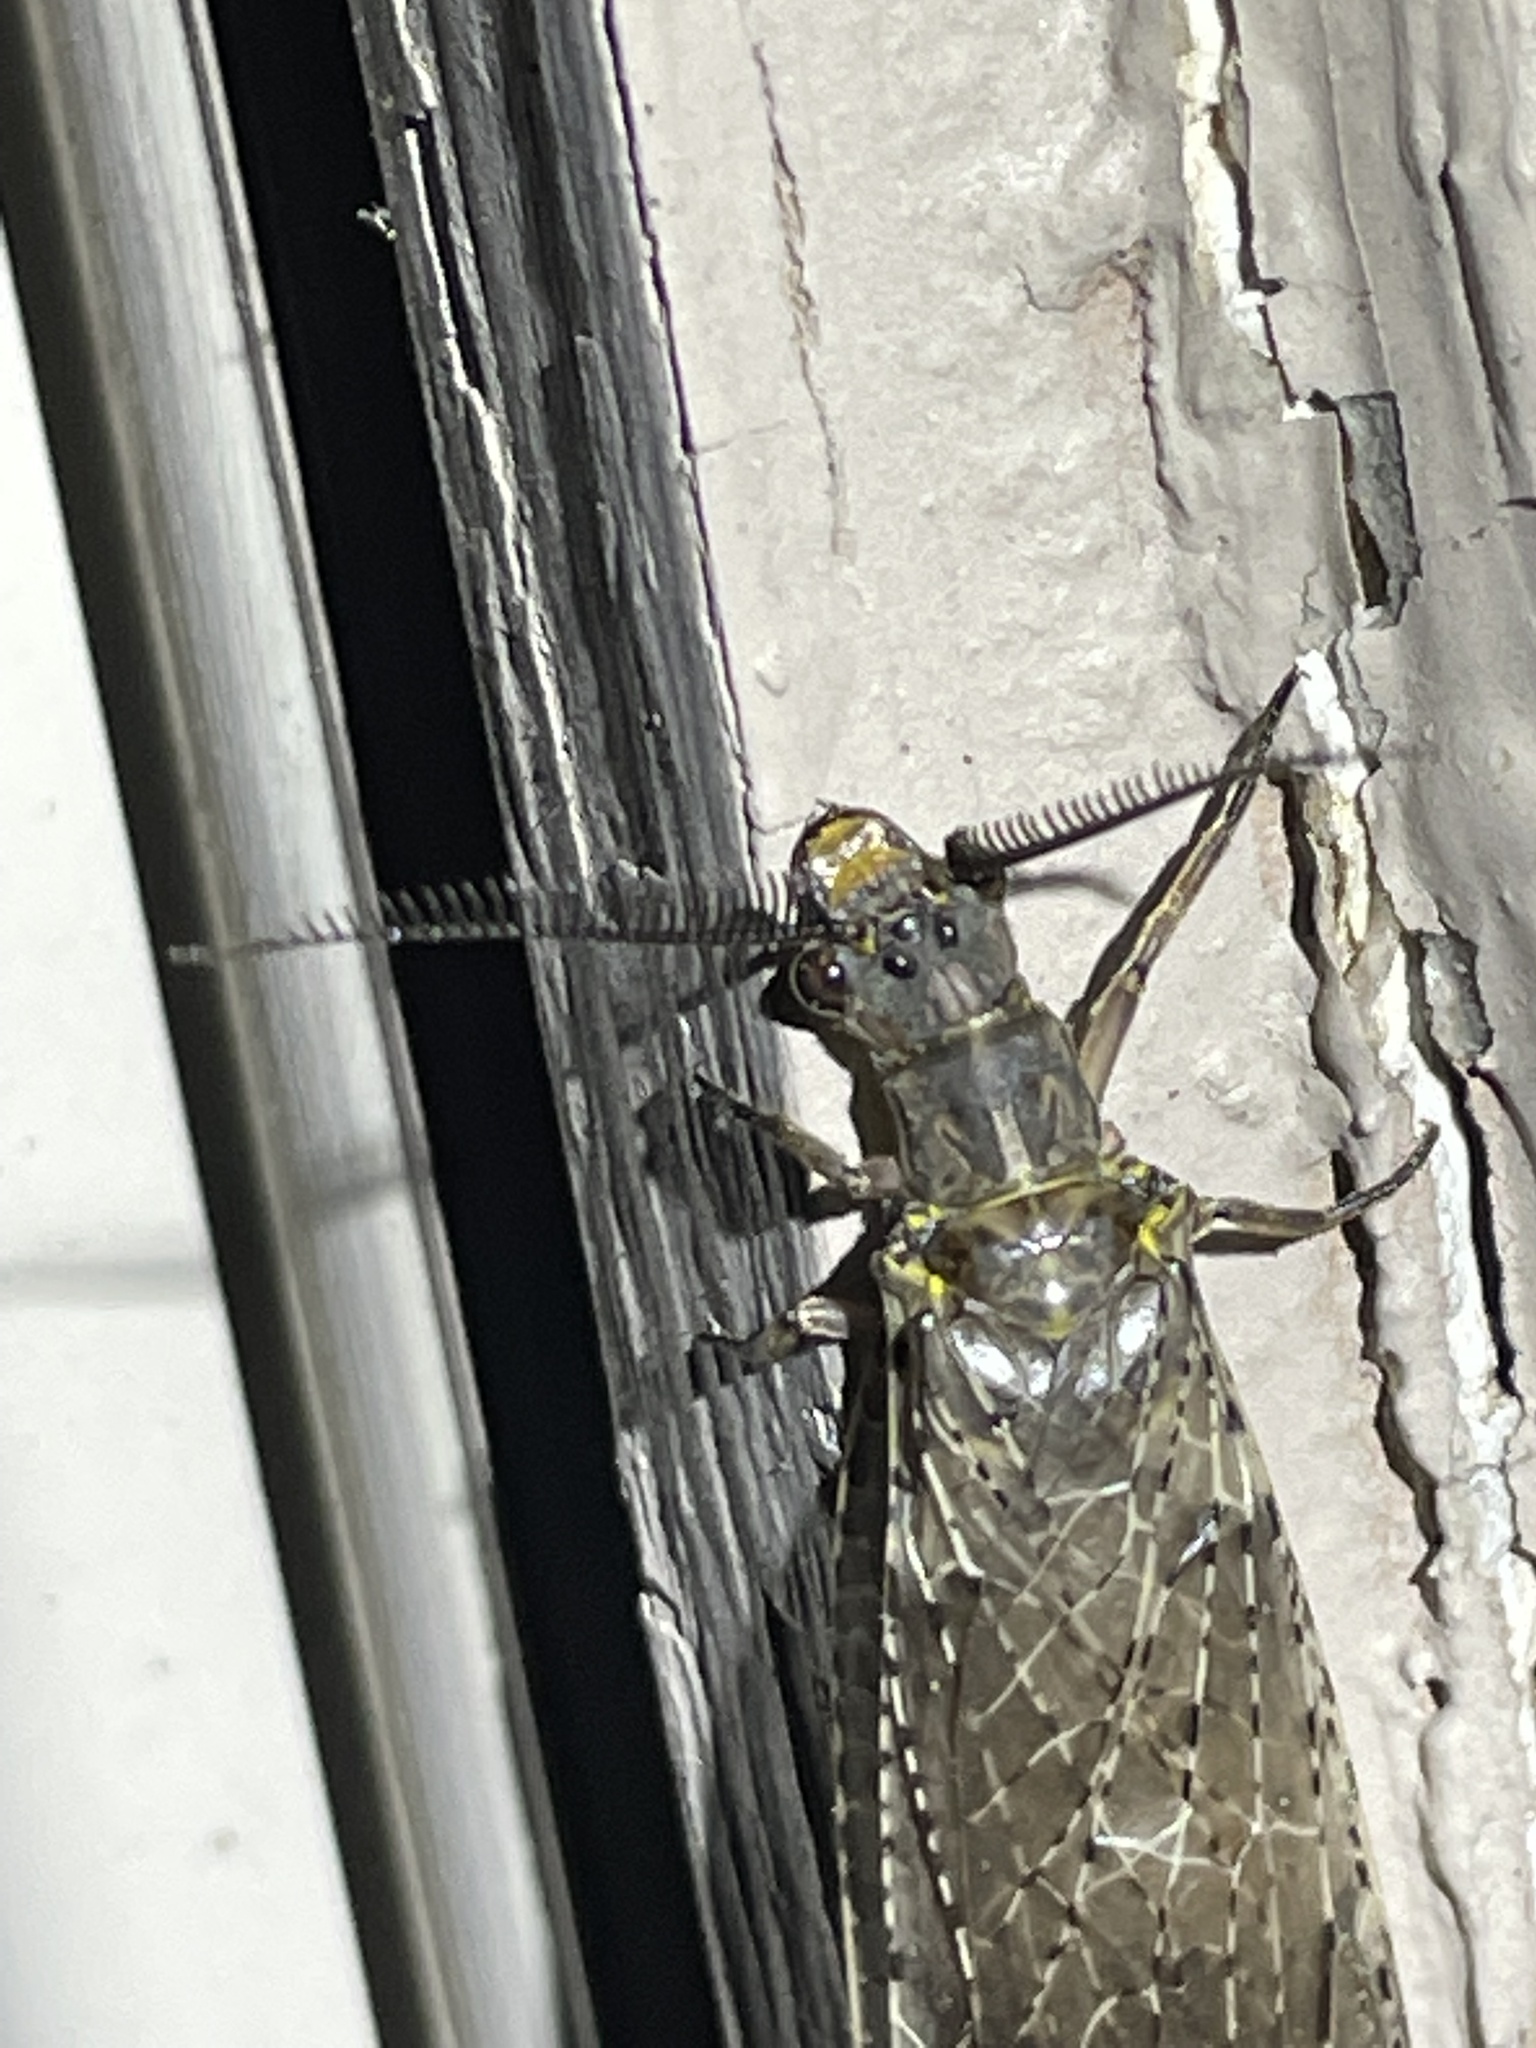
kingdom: Animalia
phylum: Arthropoda
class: Insecta
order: Megaloptera
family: Corydalidae
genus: Chauliodes
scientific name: Chauliodes pectinicornis
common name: Summer fishfly
